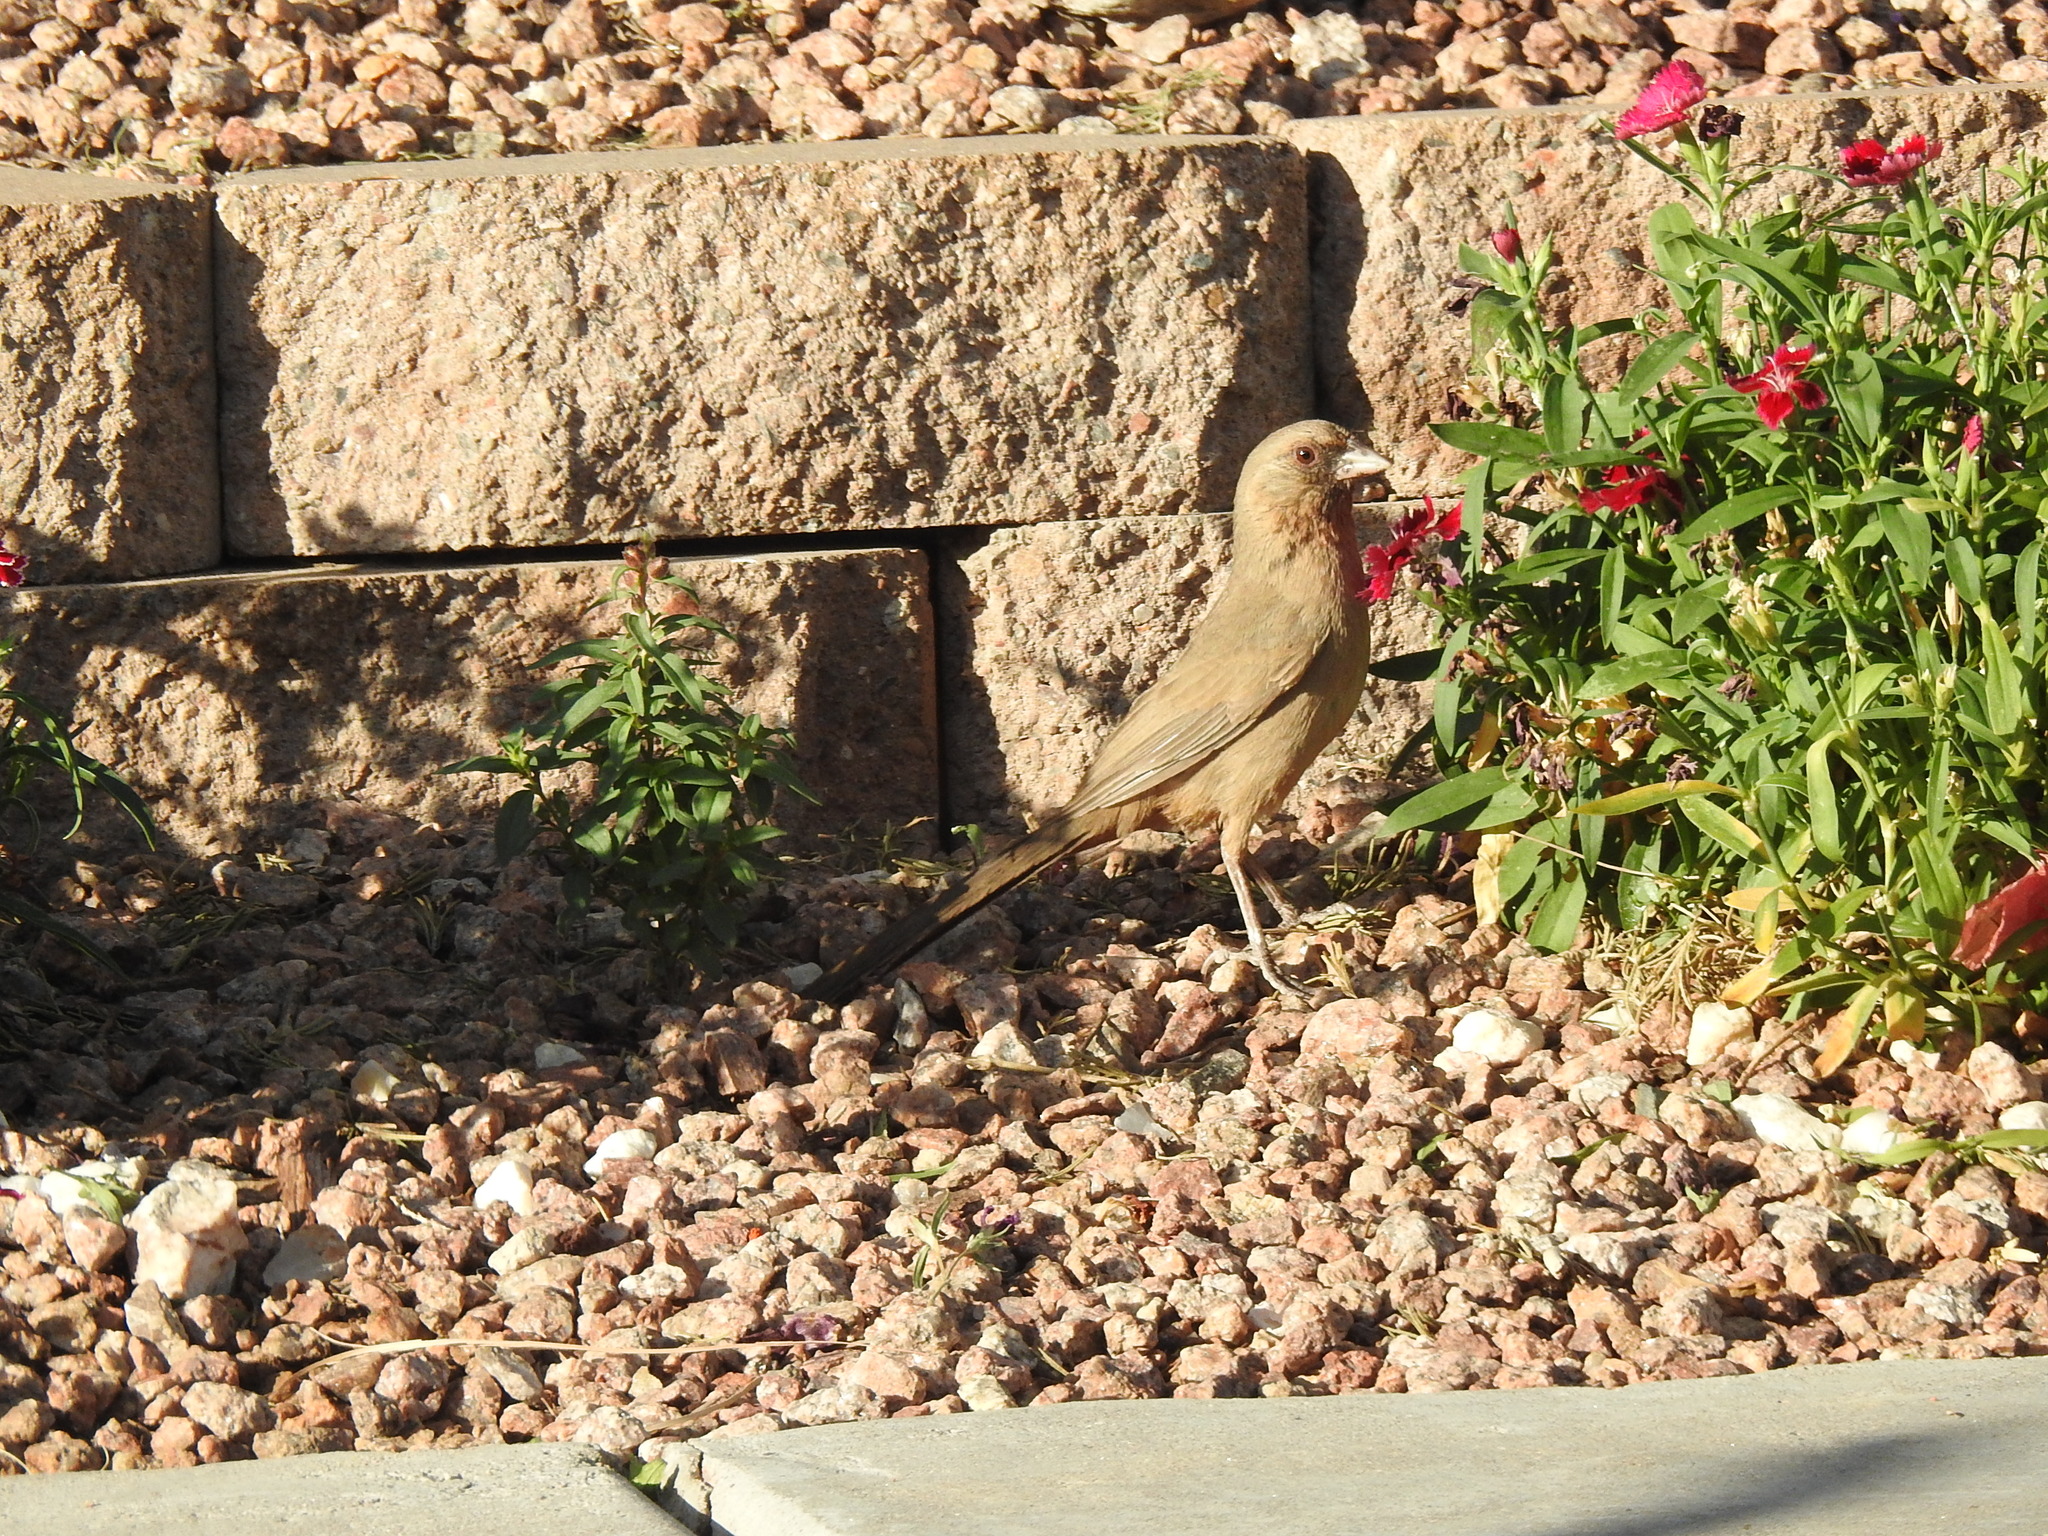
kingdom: Animalia
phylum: Chordata
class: Aves
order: Passeriformes
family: Passerellidae
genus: Melozone
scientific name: Melozone aberti
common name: Abert's towhee
